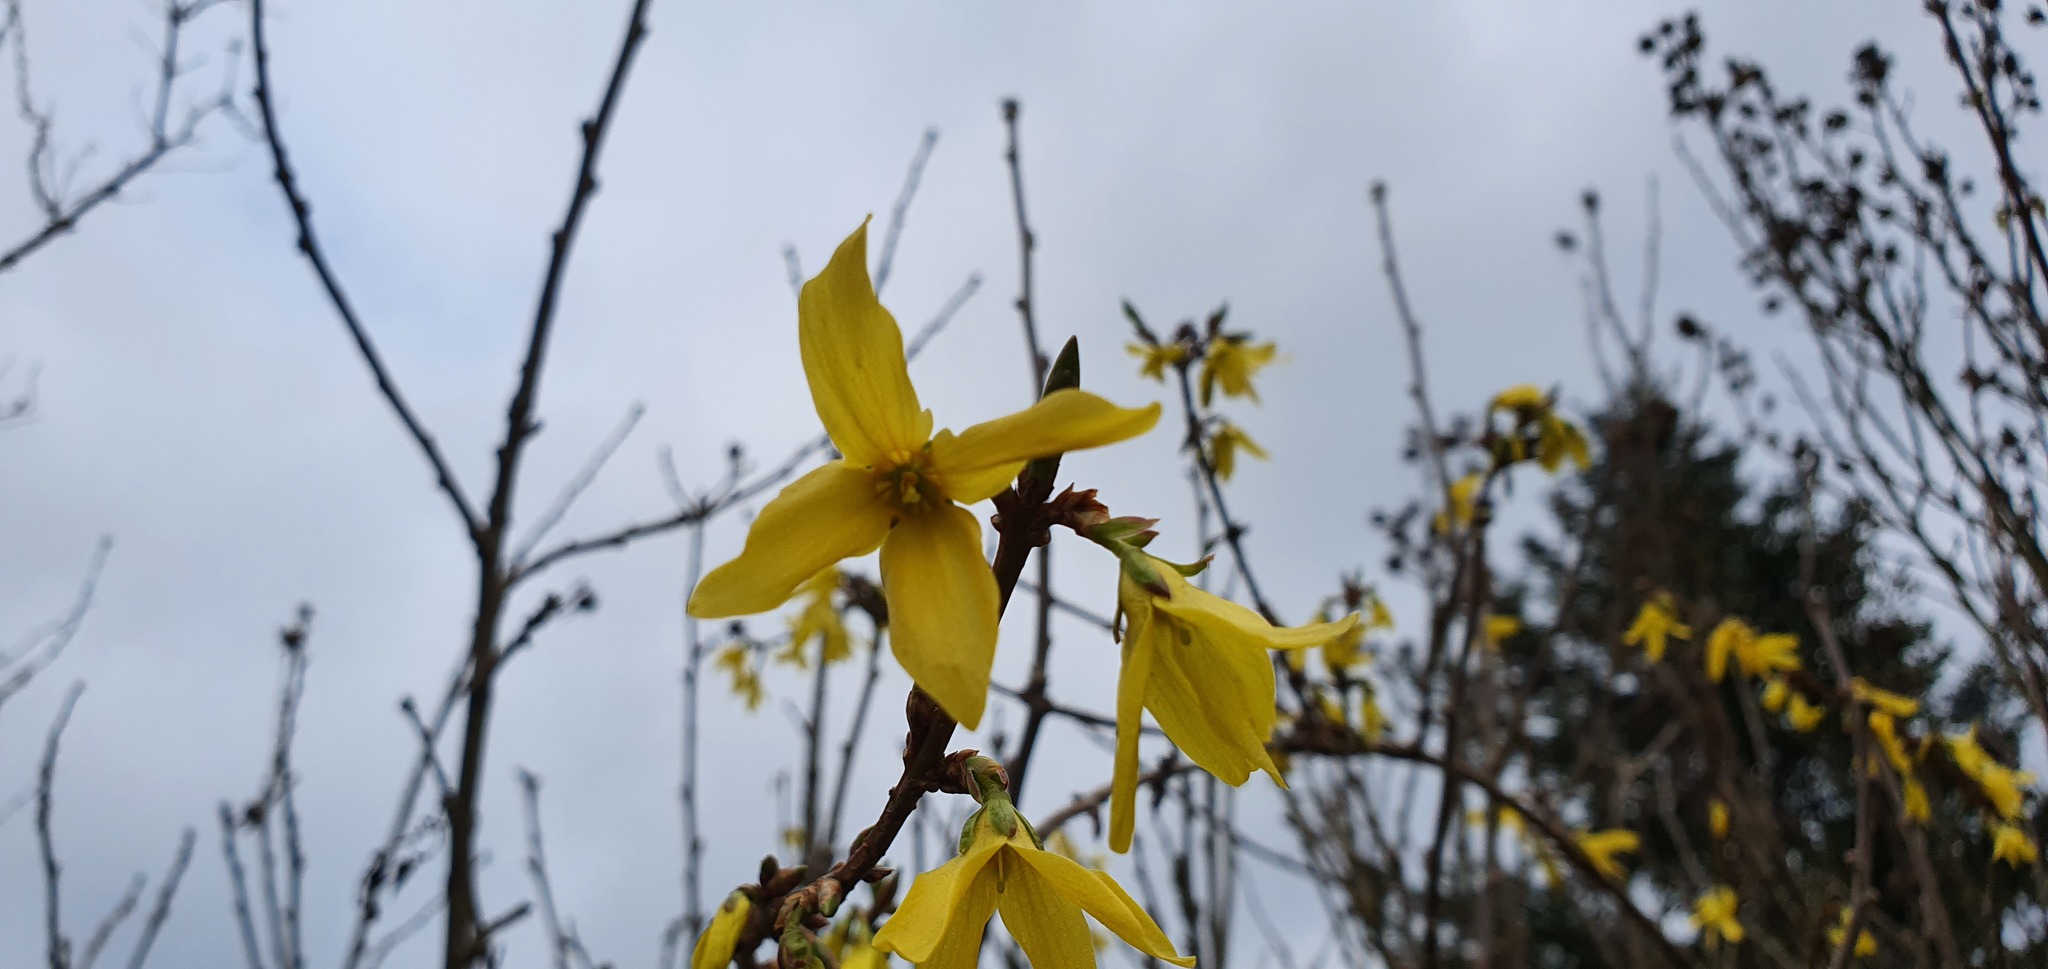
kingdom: Plantae
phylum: Tracheophyta
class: Magnoliopsida
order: Lamiales
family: Oleaceae
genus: Forsythia
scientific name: Forsythia intermedia
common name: Forsythia
